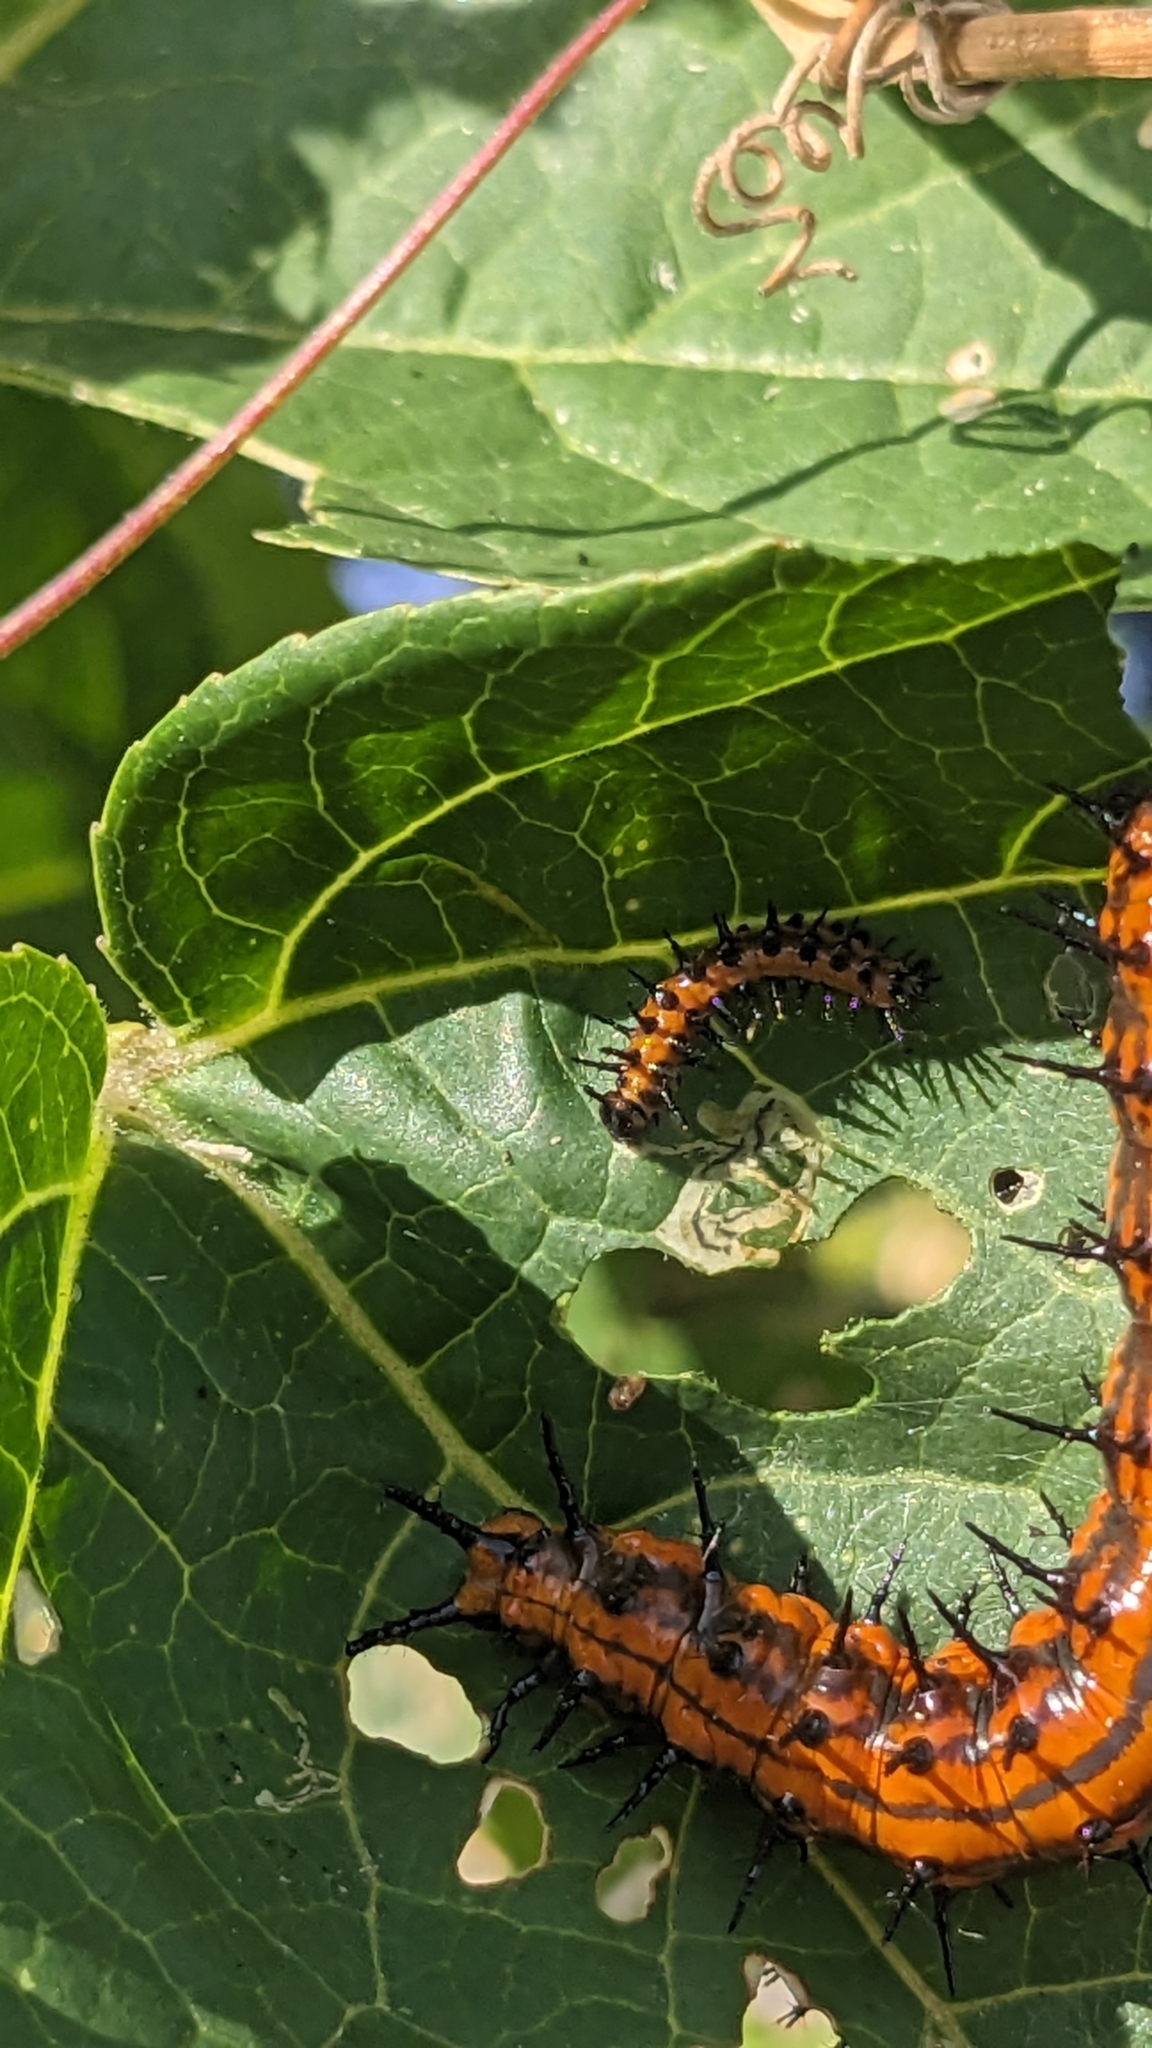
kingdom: Animalia
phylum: Arthropoda
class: Insecta
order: Lepidoptera
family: Nymphalidae
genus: Dione
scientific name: Dione vanillae
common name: Gulf fritillary
